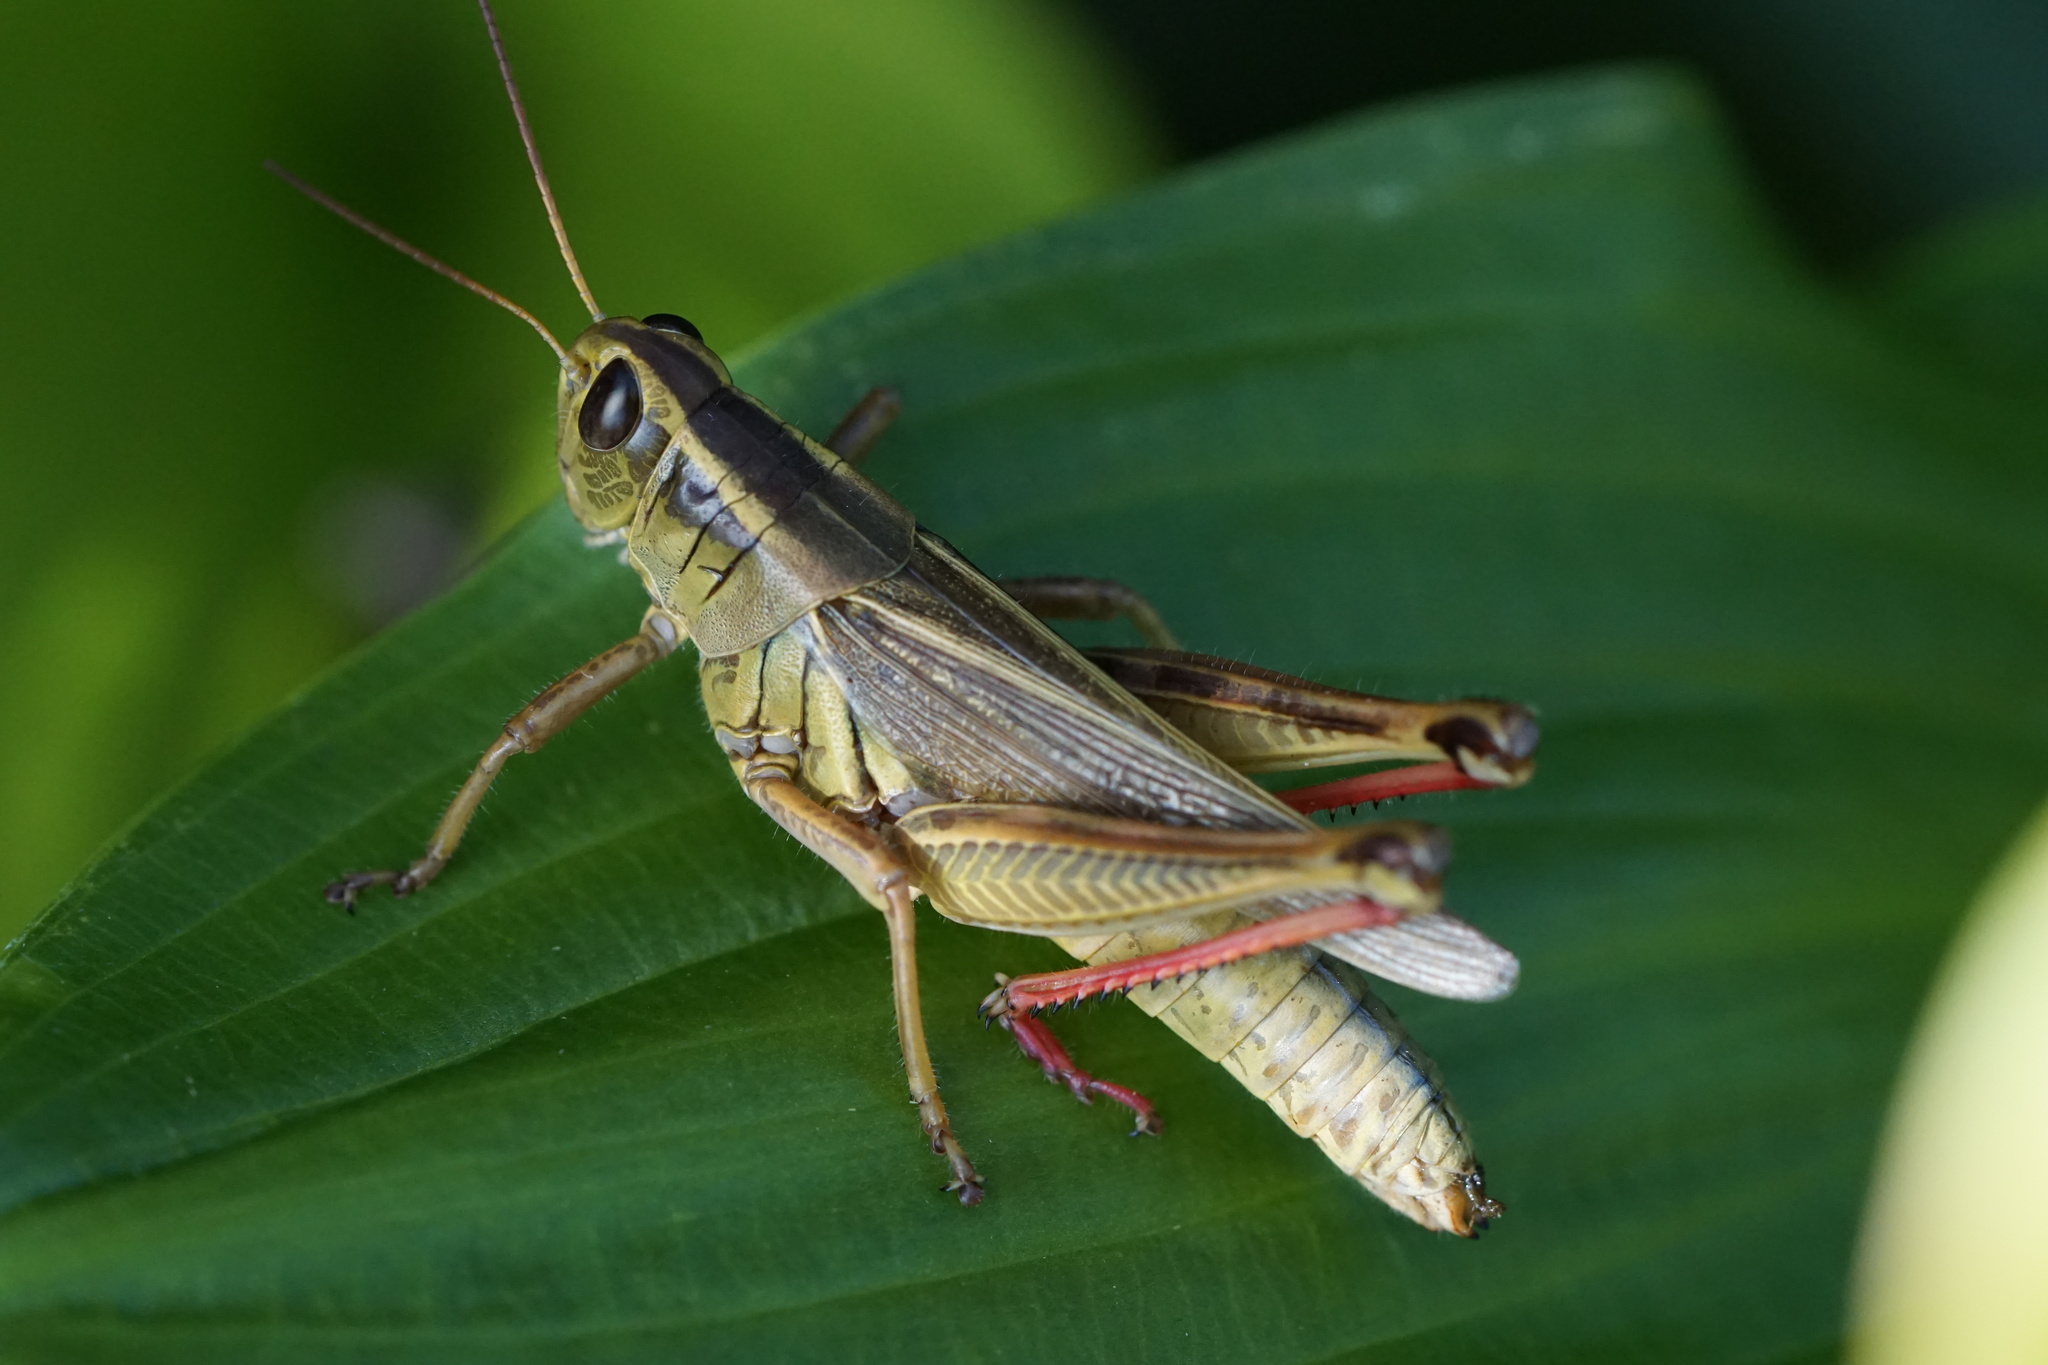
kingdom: Animalia
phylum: Arthropoda
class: Insecta
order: Orthoptera
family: Acrididae
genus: Melanoplus
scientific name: Melanoplus bivittatus
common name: Two-striped grasshopper
